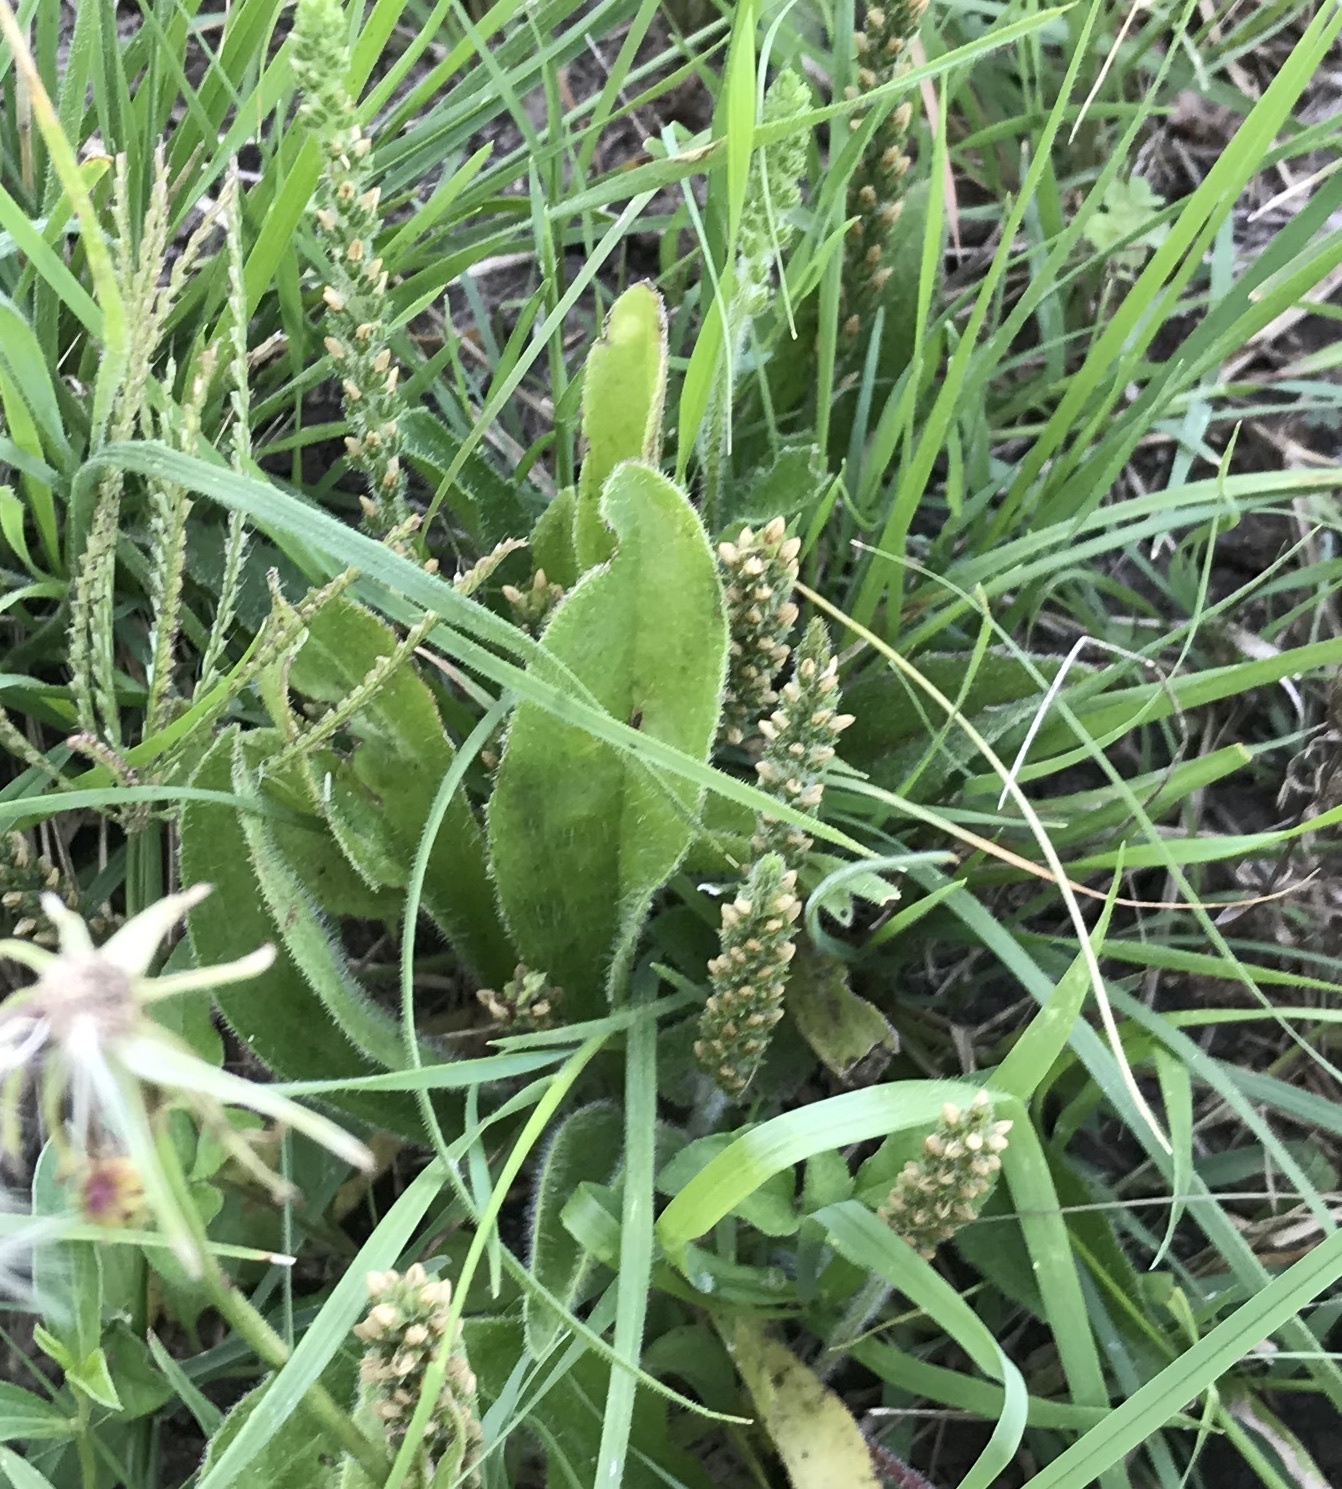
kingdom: Plantae
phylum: Tracheophyta
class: Magnoliopsida
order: Lamiales
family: Plantaginaceae
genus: Plantago
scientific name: Plantago rhodosperma
